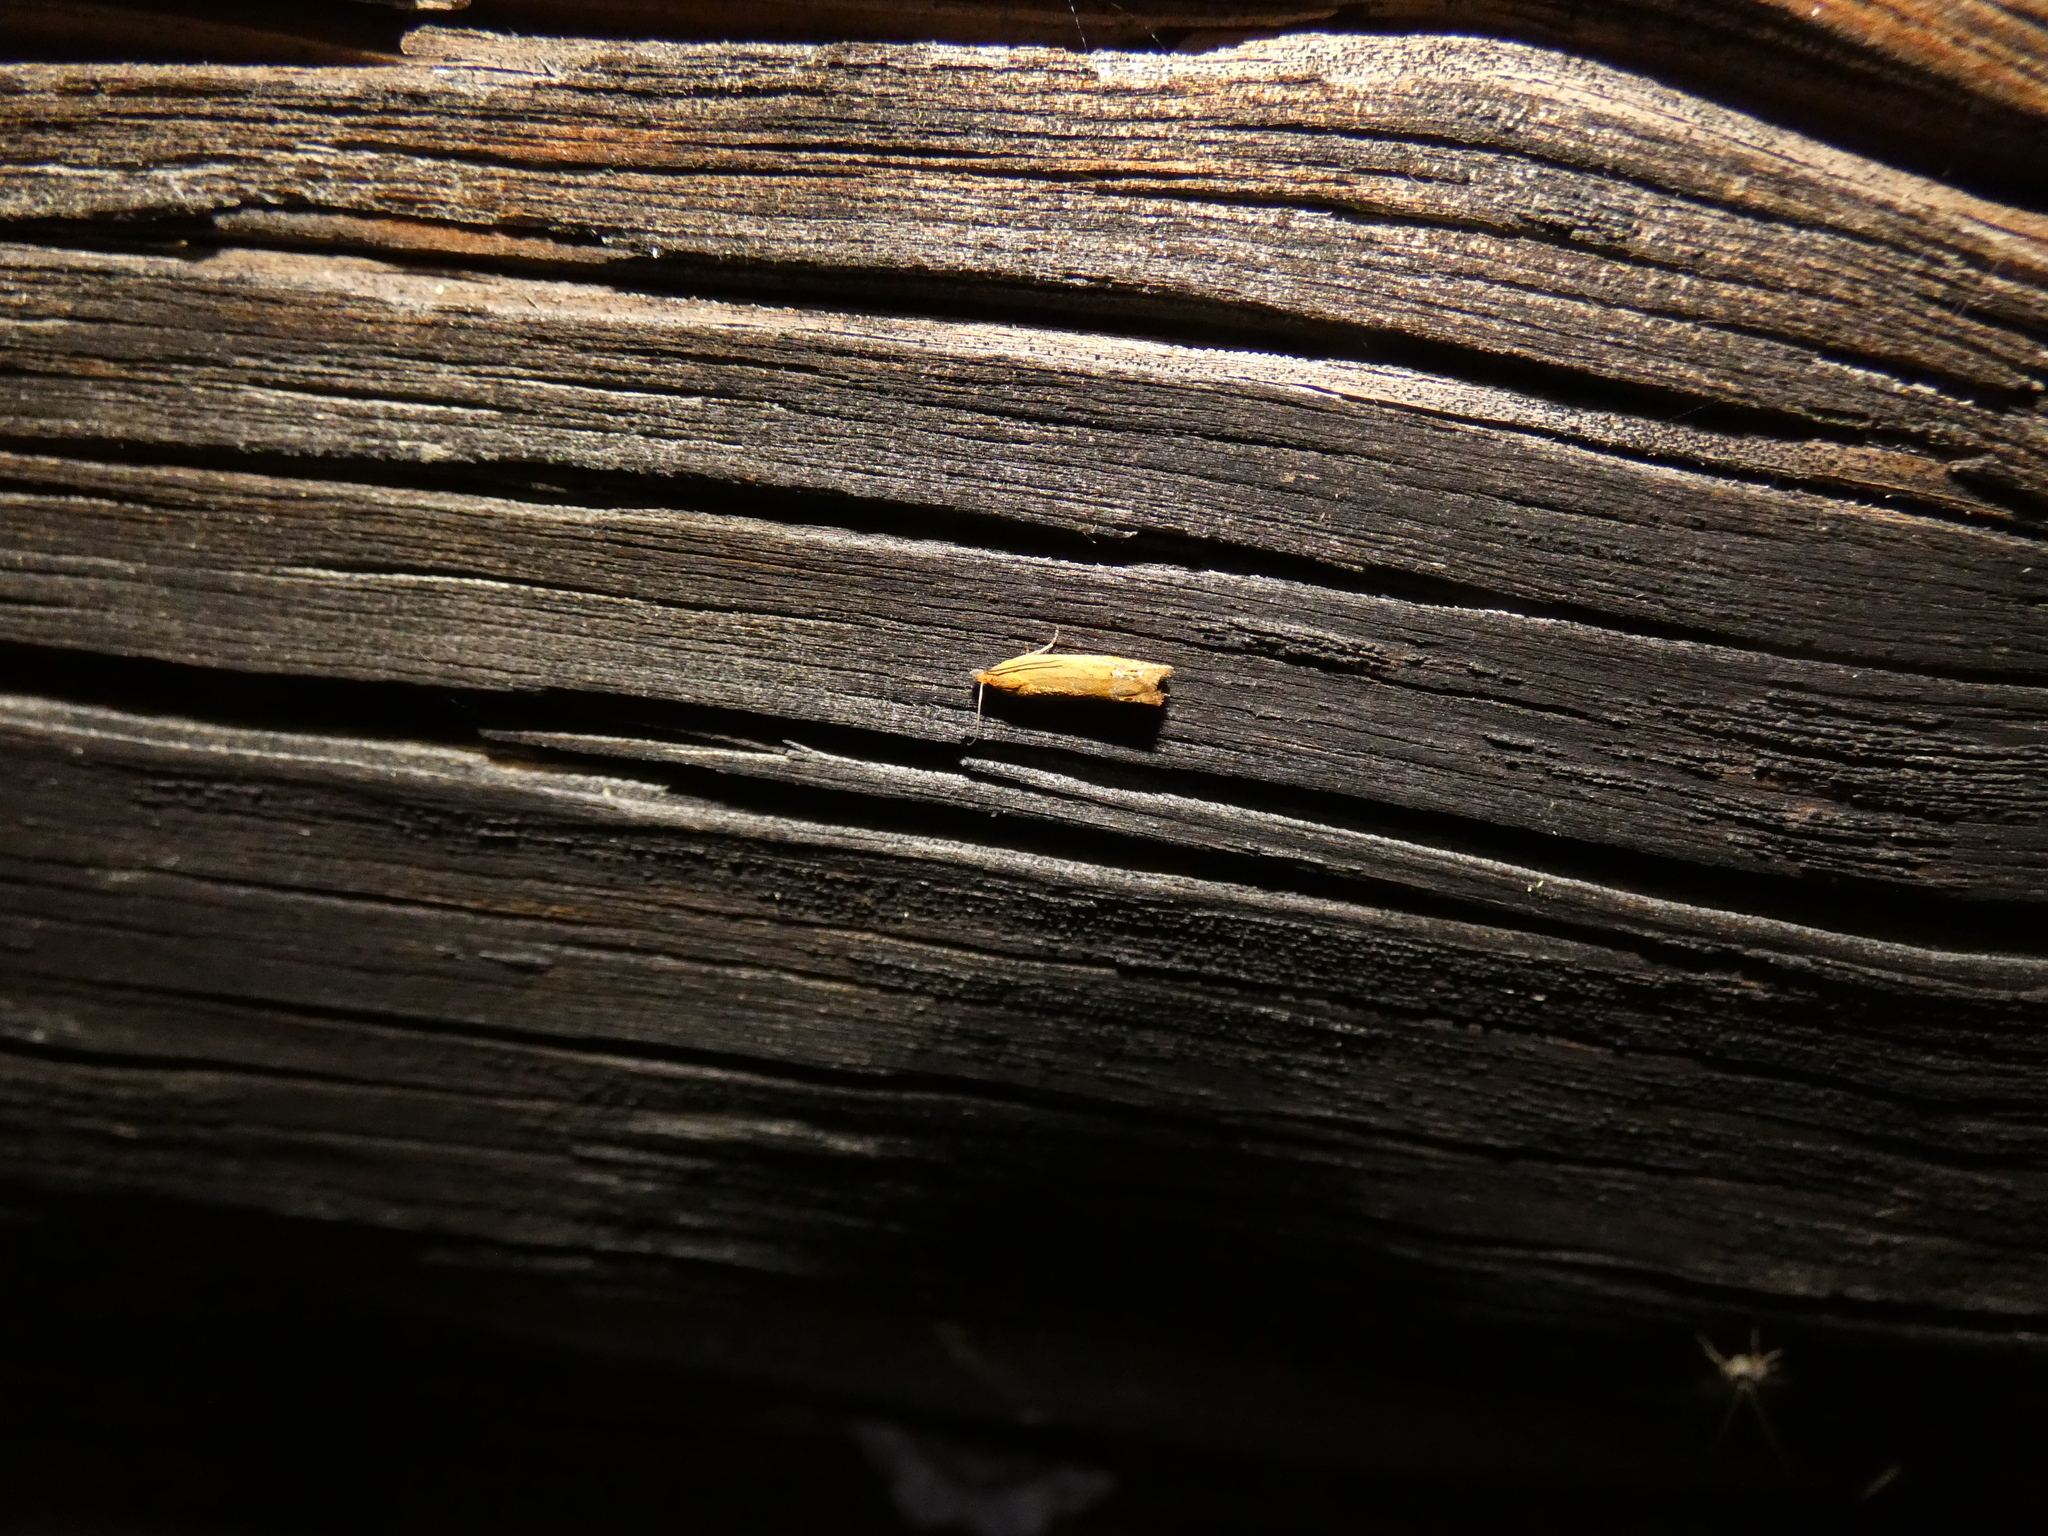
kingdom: Animalia
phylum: Arthropoda
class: Insecta
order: Lepidoptera
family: Tortricidae
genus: Lathronympha
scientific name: Lathronympha strigana
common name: Red piercer
